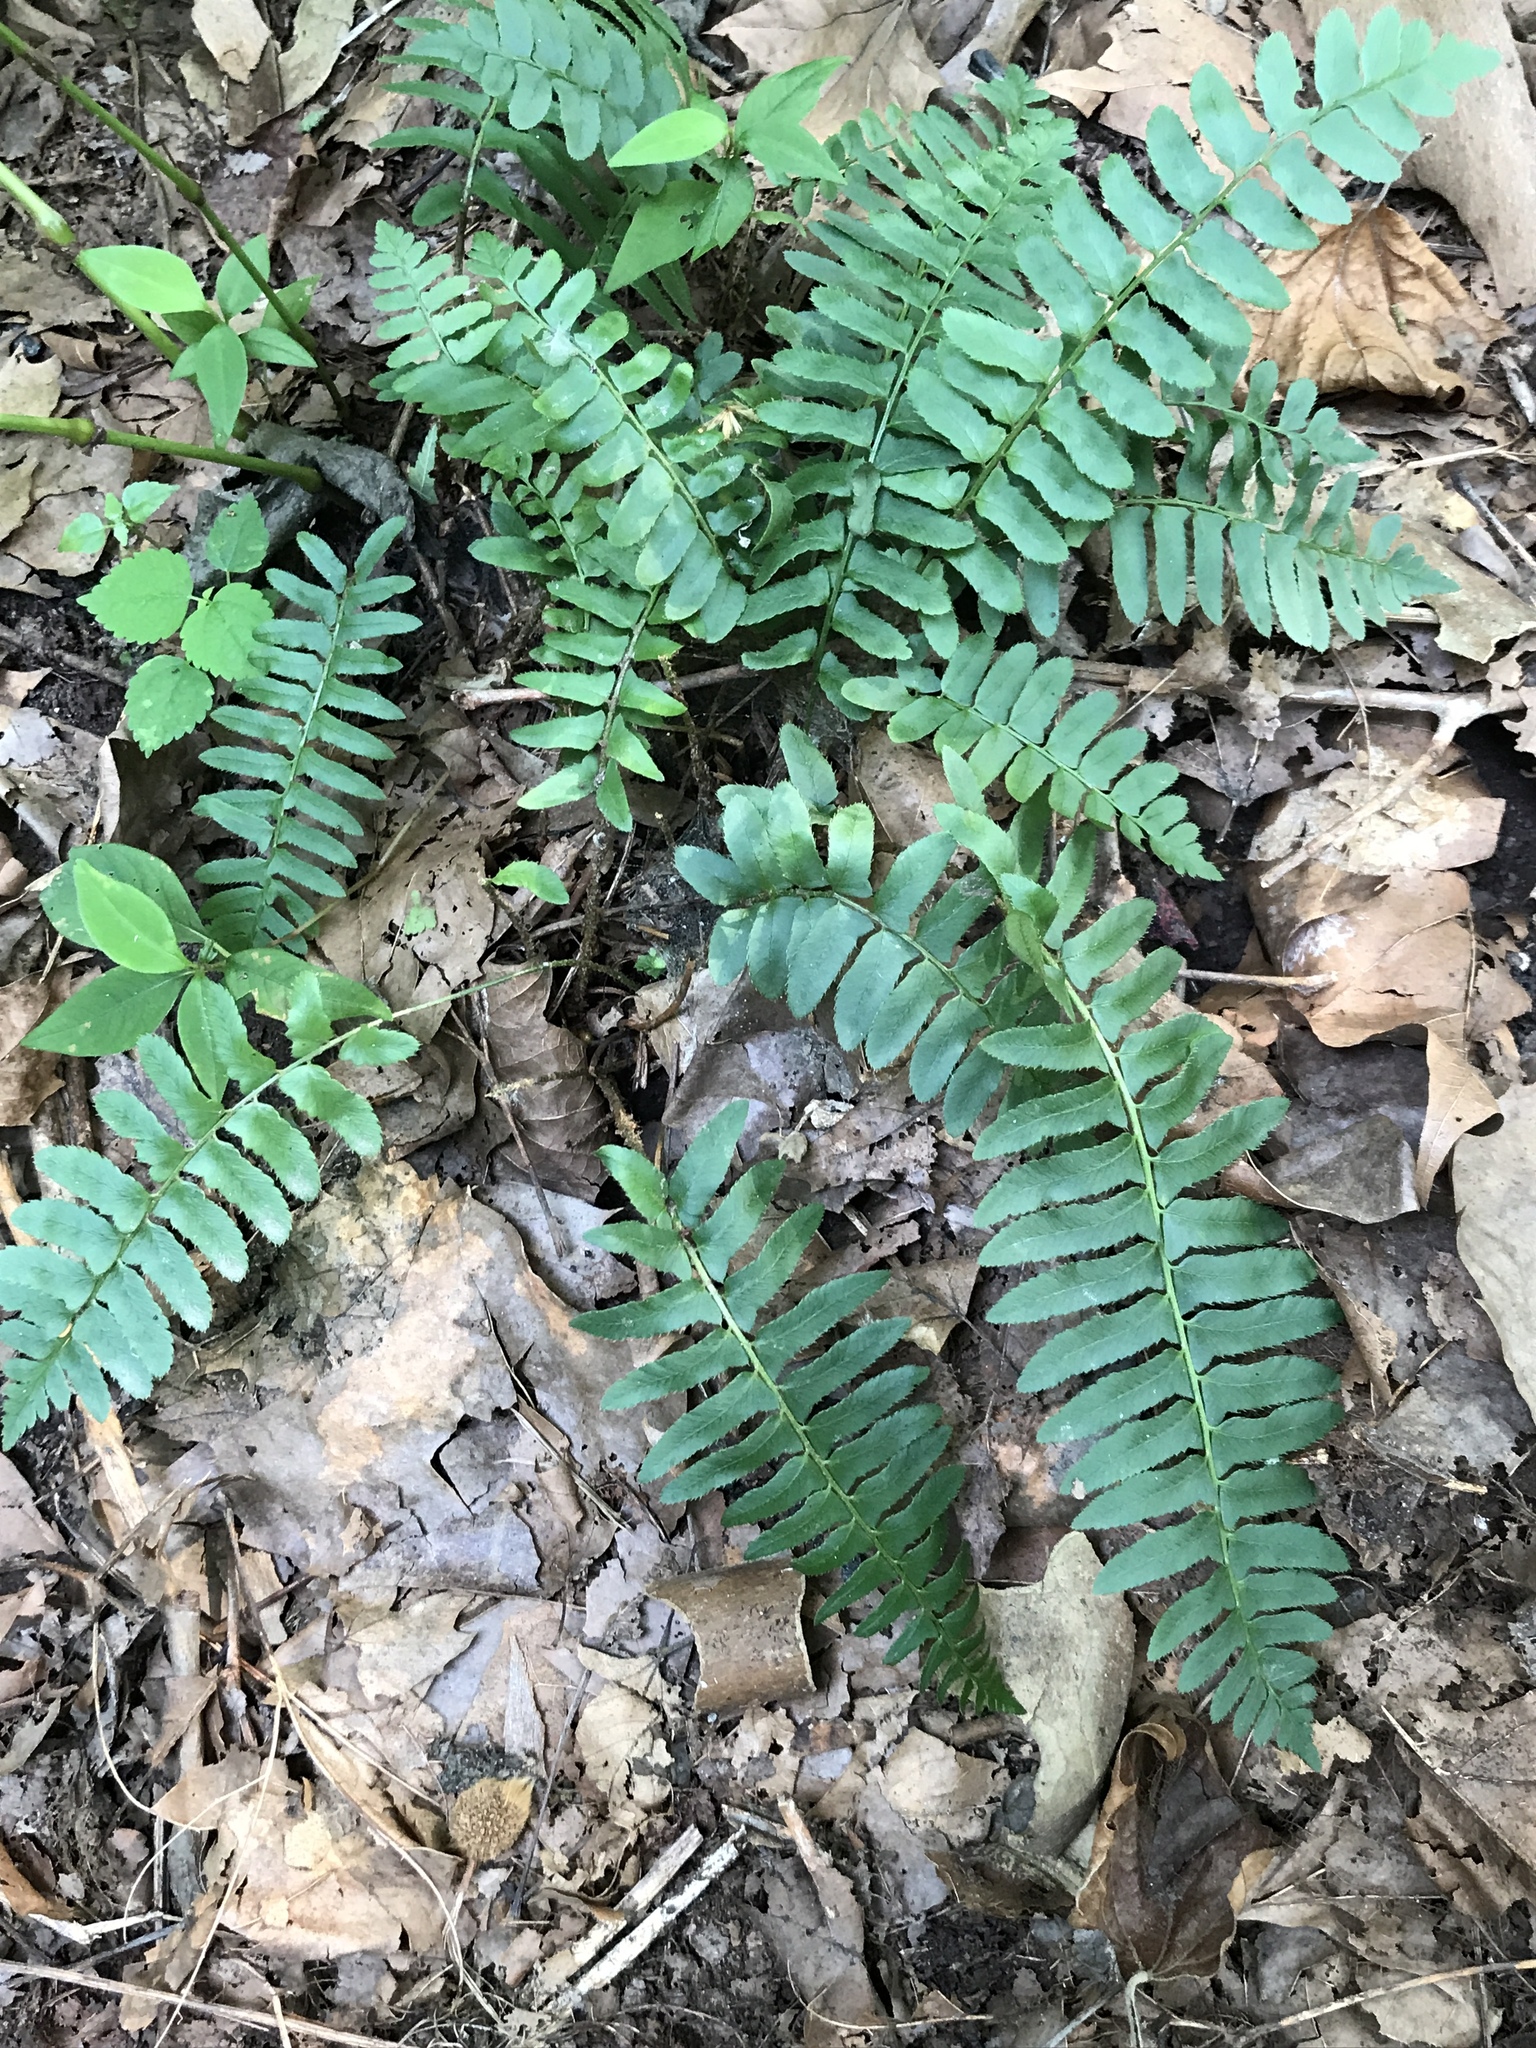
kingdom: Plantae
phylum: Tracheophyta
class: Polypodiopsida
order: Polypodiales
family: Dryopteridaceae
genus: Polystichum
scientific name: Polystichum acrostichoides
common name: Christmas fern
